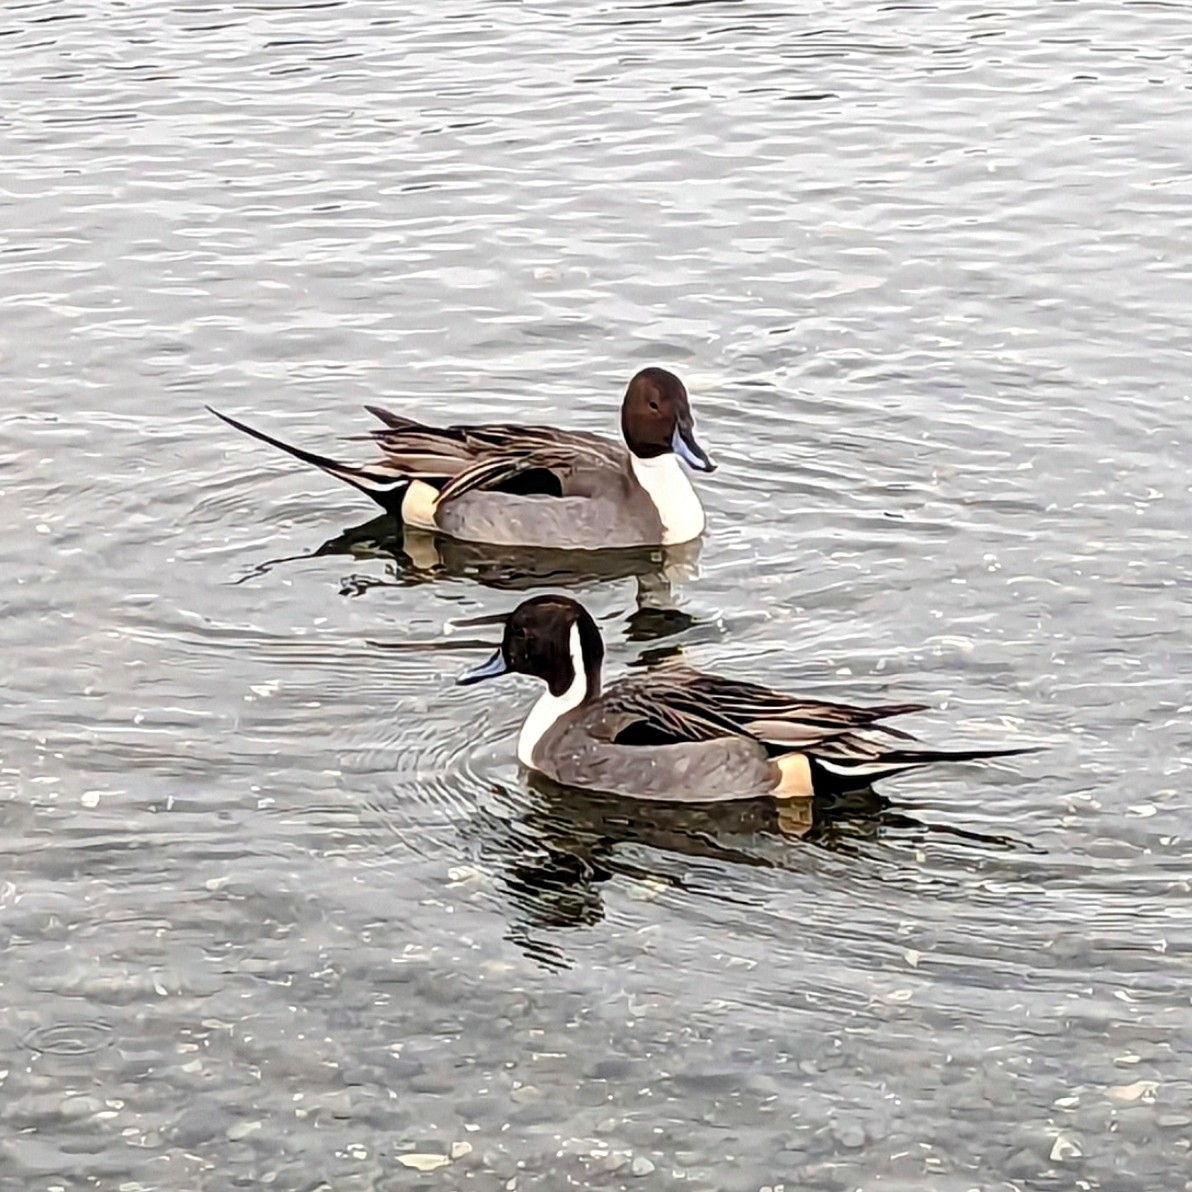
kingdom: Animalia
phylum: Chordata
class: Aves
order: Anseriformes
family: Anatidae
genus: Anas
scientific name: Anas acuta
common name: Northern pintail
